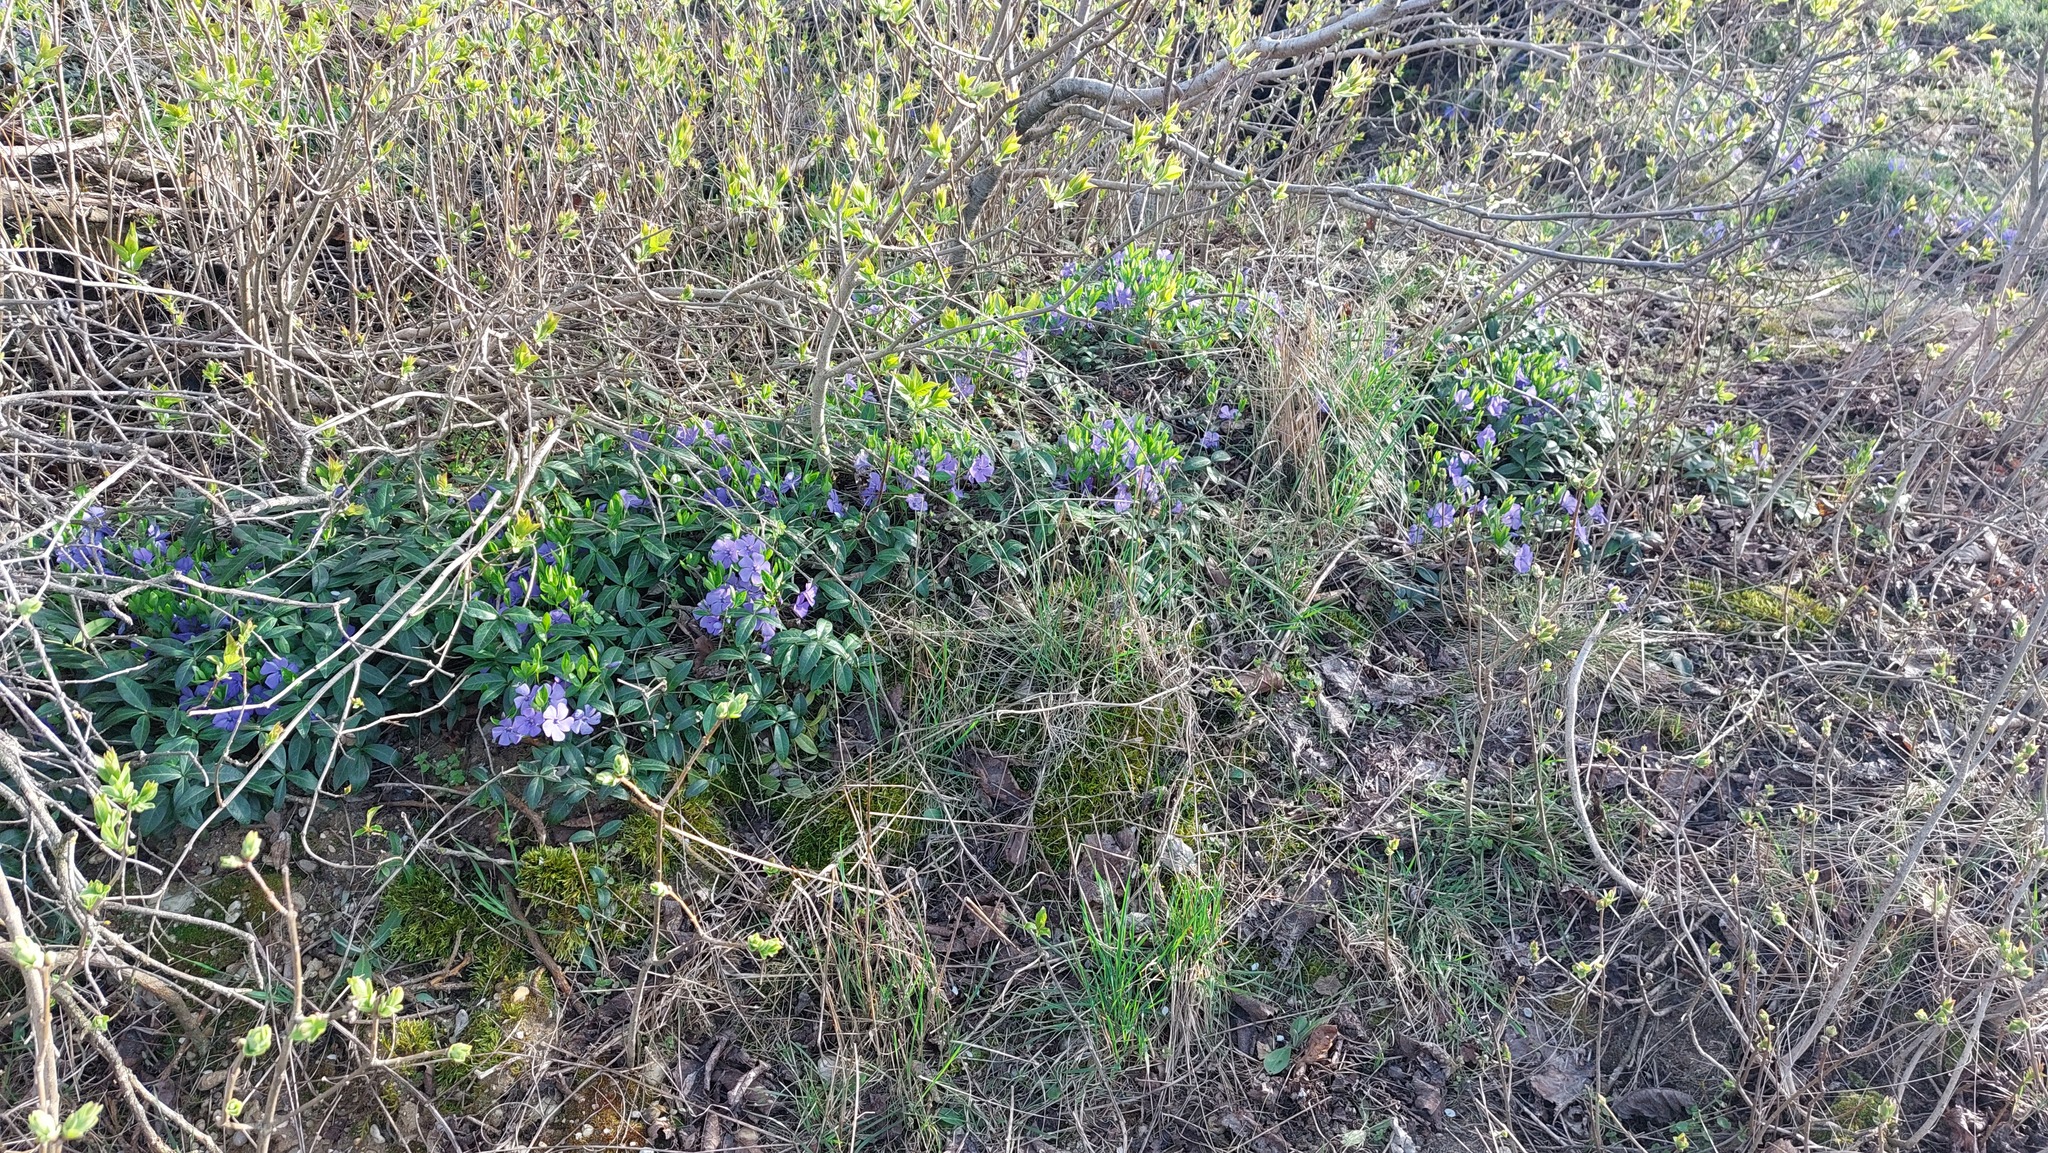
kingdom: Plantae
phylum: Tracheophyta
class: Magnoliopsida
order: Gentianales
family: Apocynaceae
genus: Vinca
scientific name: Vinca minor
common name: Lesser periwinkle
